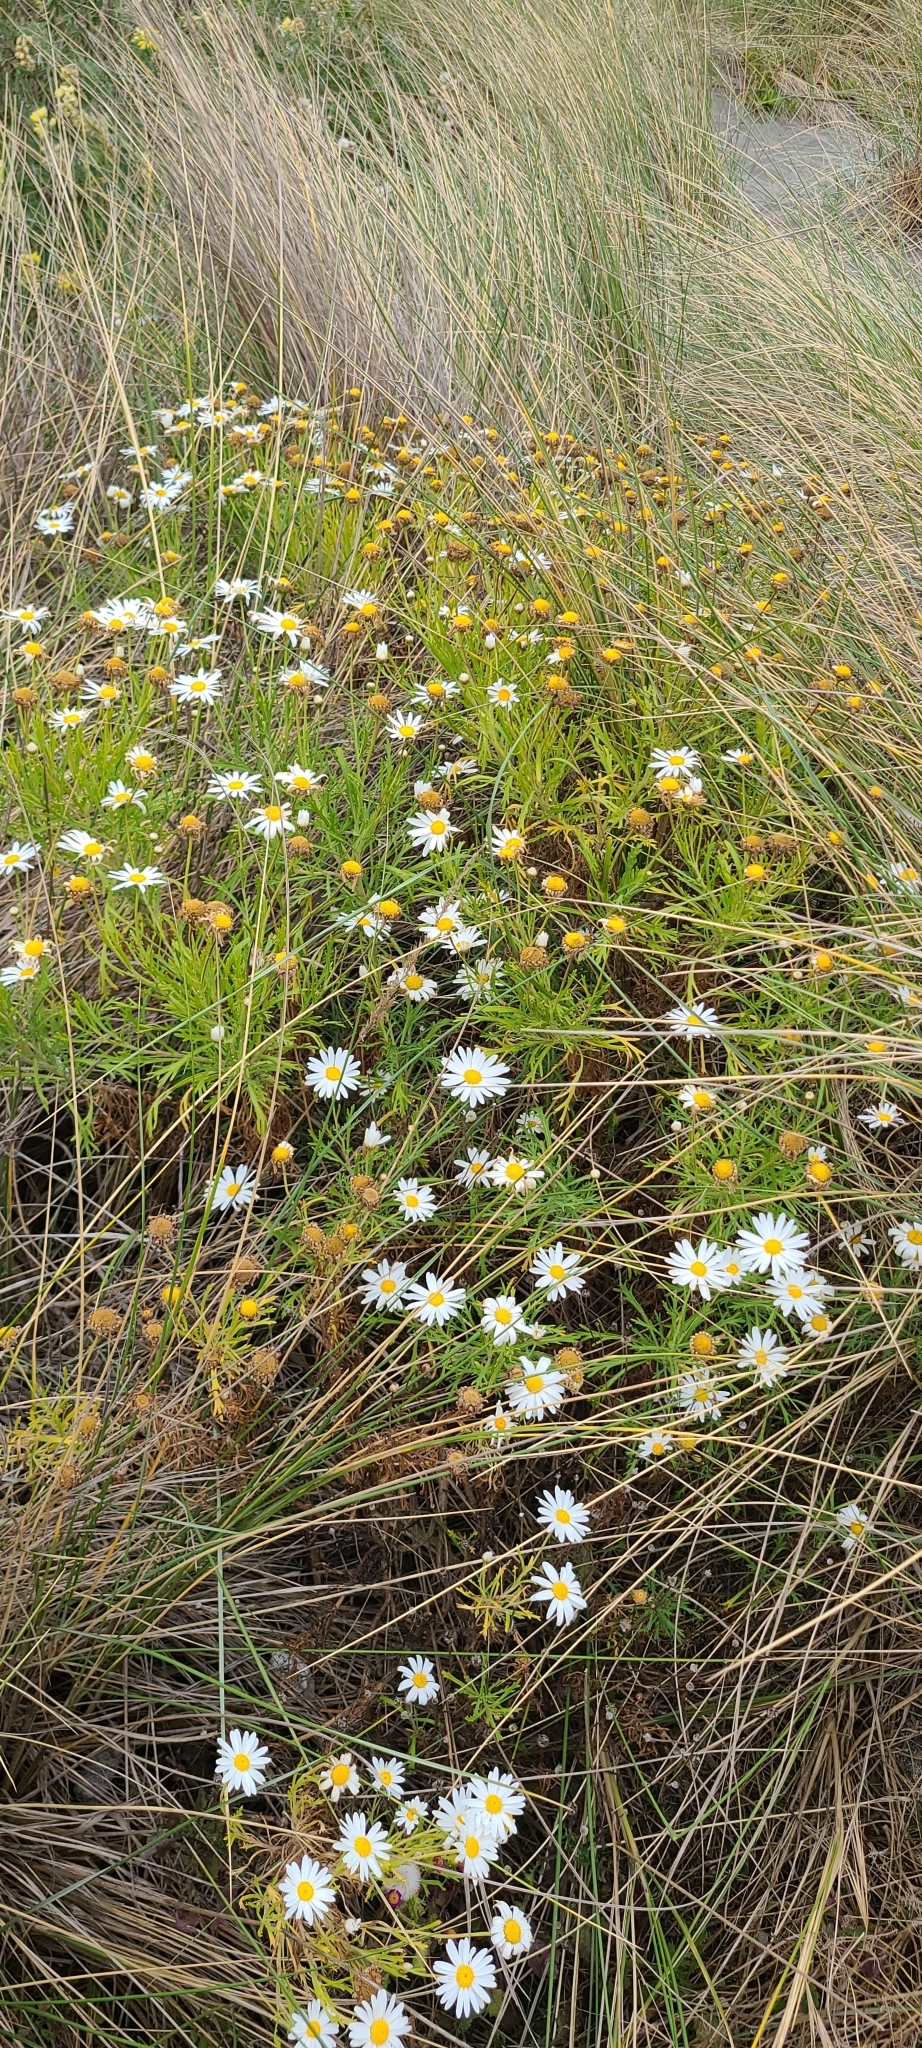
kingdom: Plantae
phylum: Tracheophyta
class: Magnoliopsida
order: Asterales
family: Asteraceae
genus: Argyranthemum
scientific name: Argyranthemum frutescens
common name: Paris daisy
